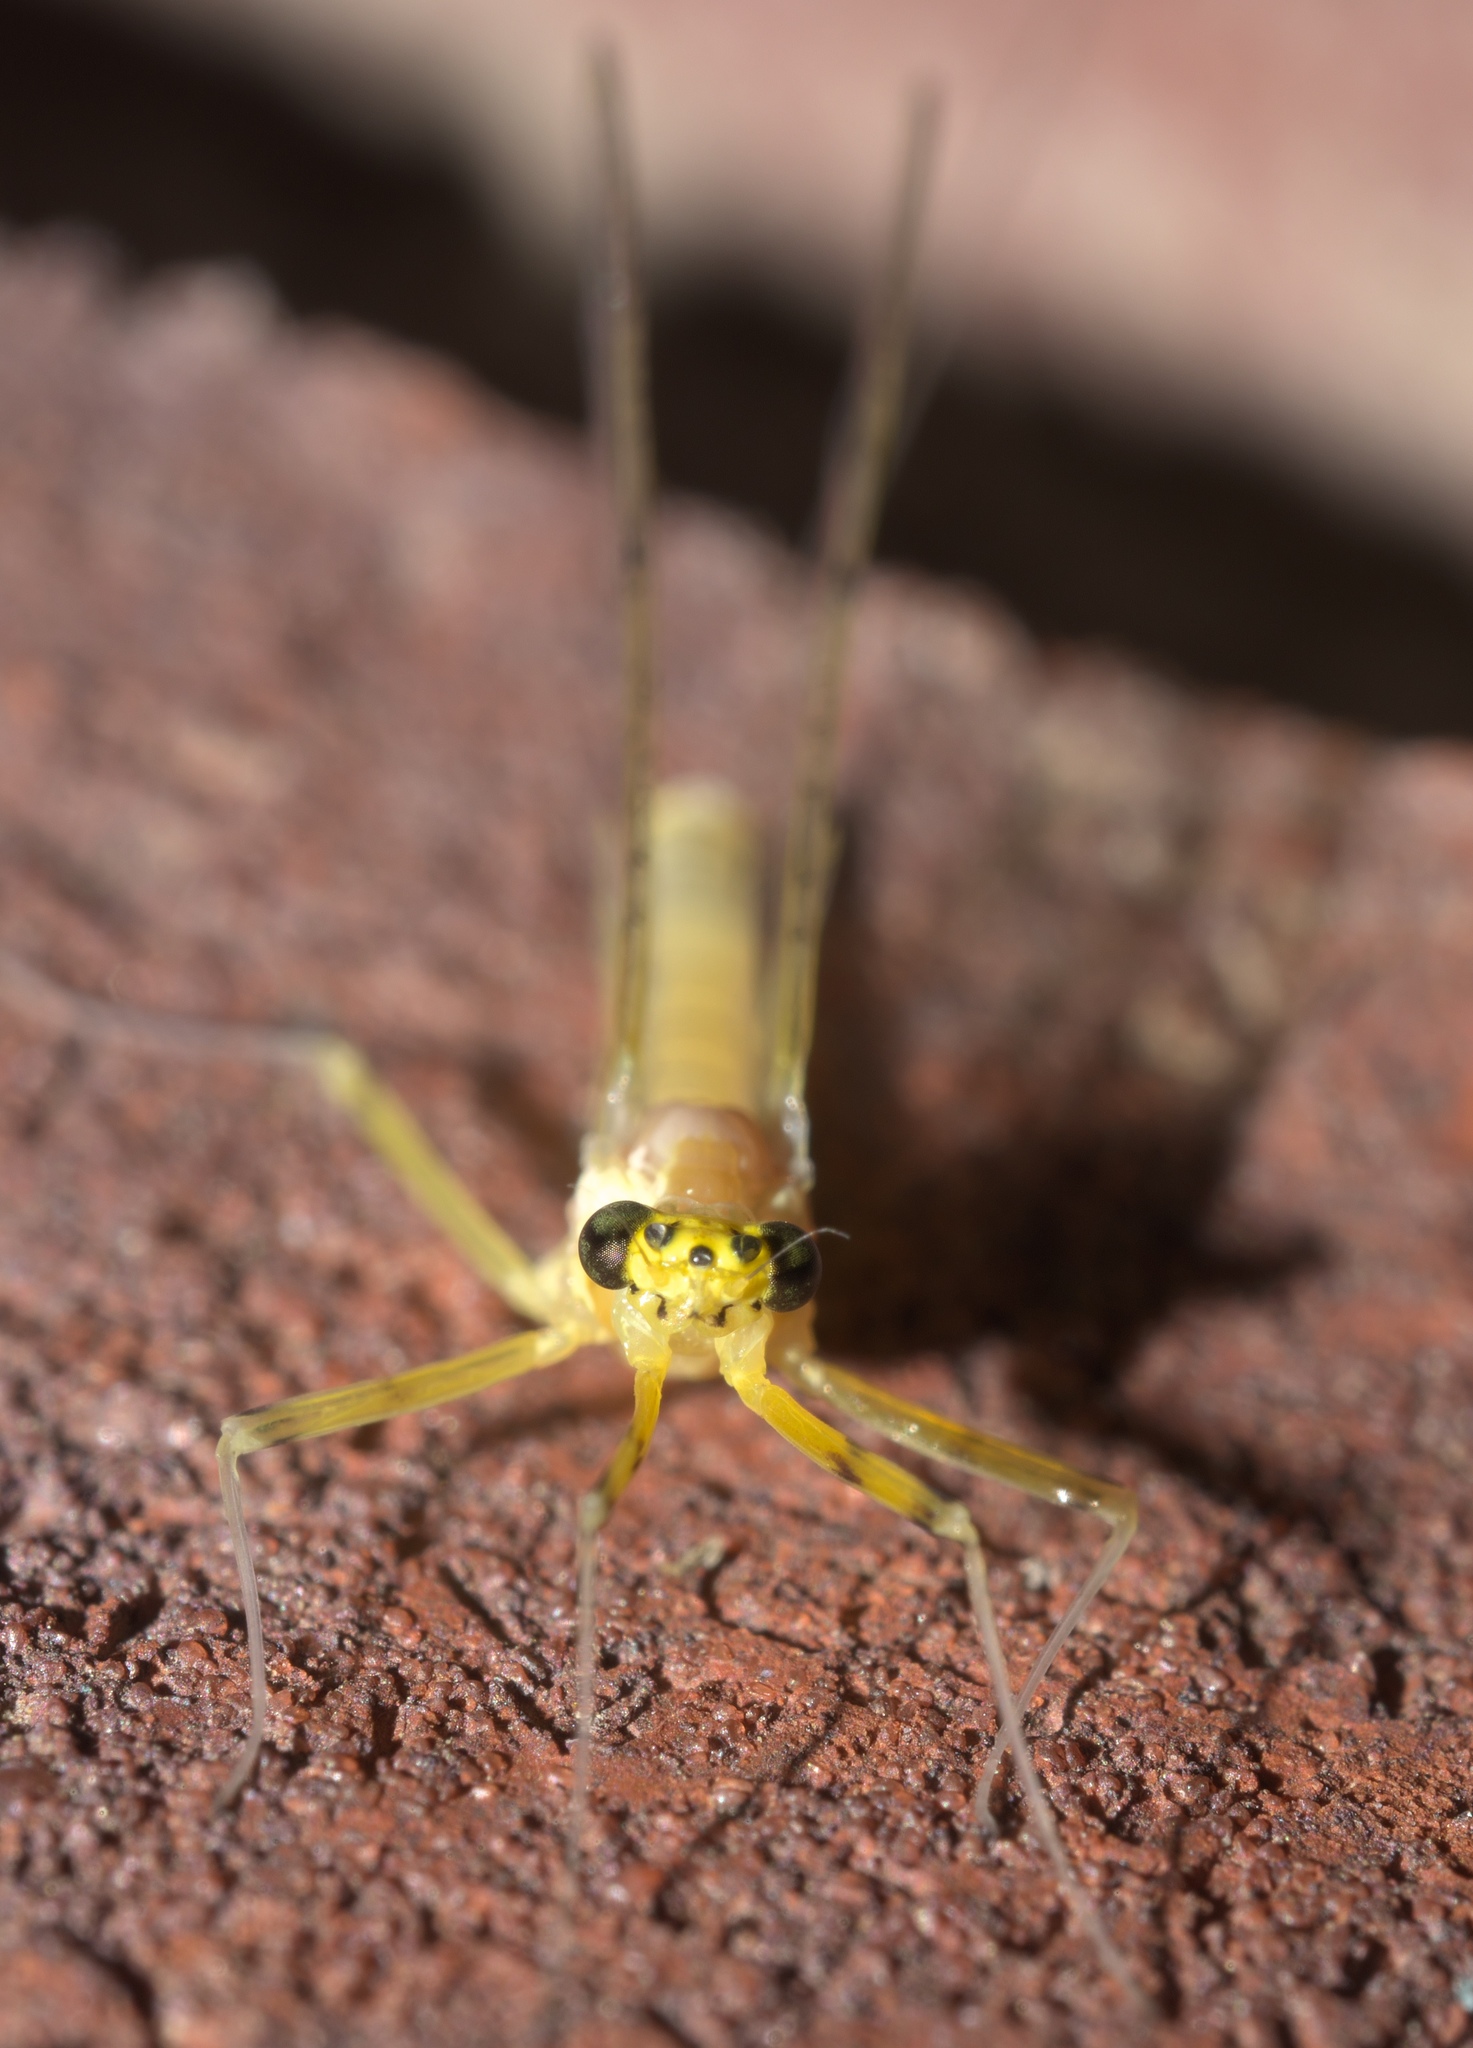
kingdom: Animalia
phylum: Arthropoda
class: Insecta
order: Ephemeroptera
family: Heptageniidae
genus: Stenacron
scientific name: Stenacron interpunctatum
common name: Orange cahill
